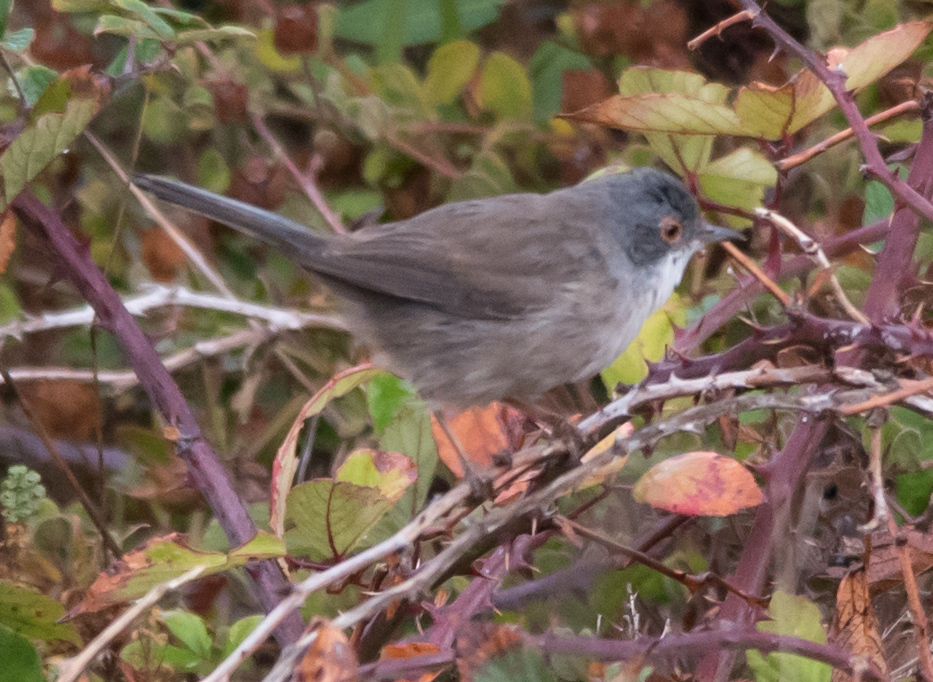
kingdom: Animalia
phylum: Chordata
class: Aves
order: Passeriformes
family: Sylviidae
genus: Curruca
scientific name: Curruca melanocephala
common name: Sardinian warbler
